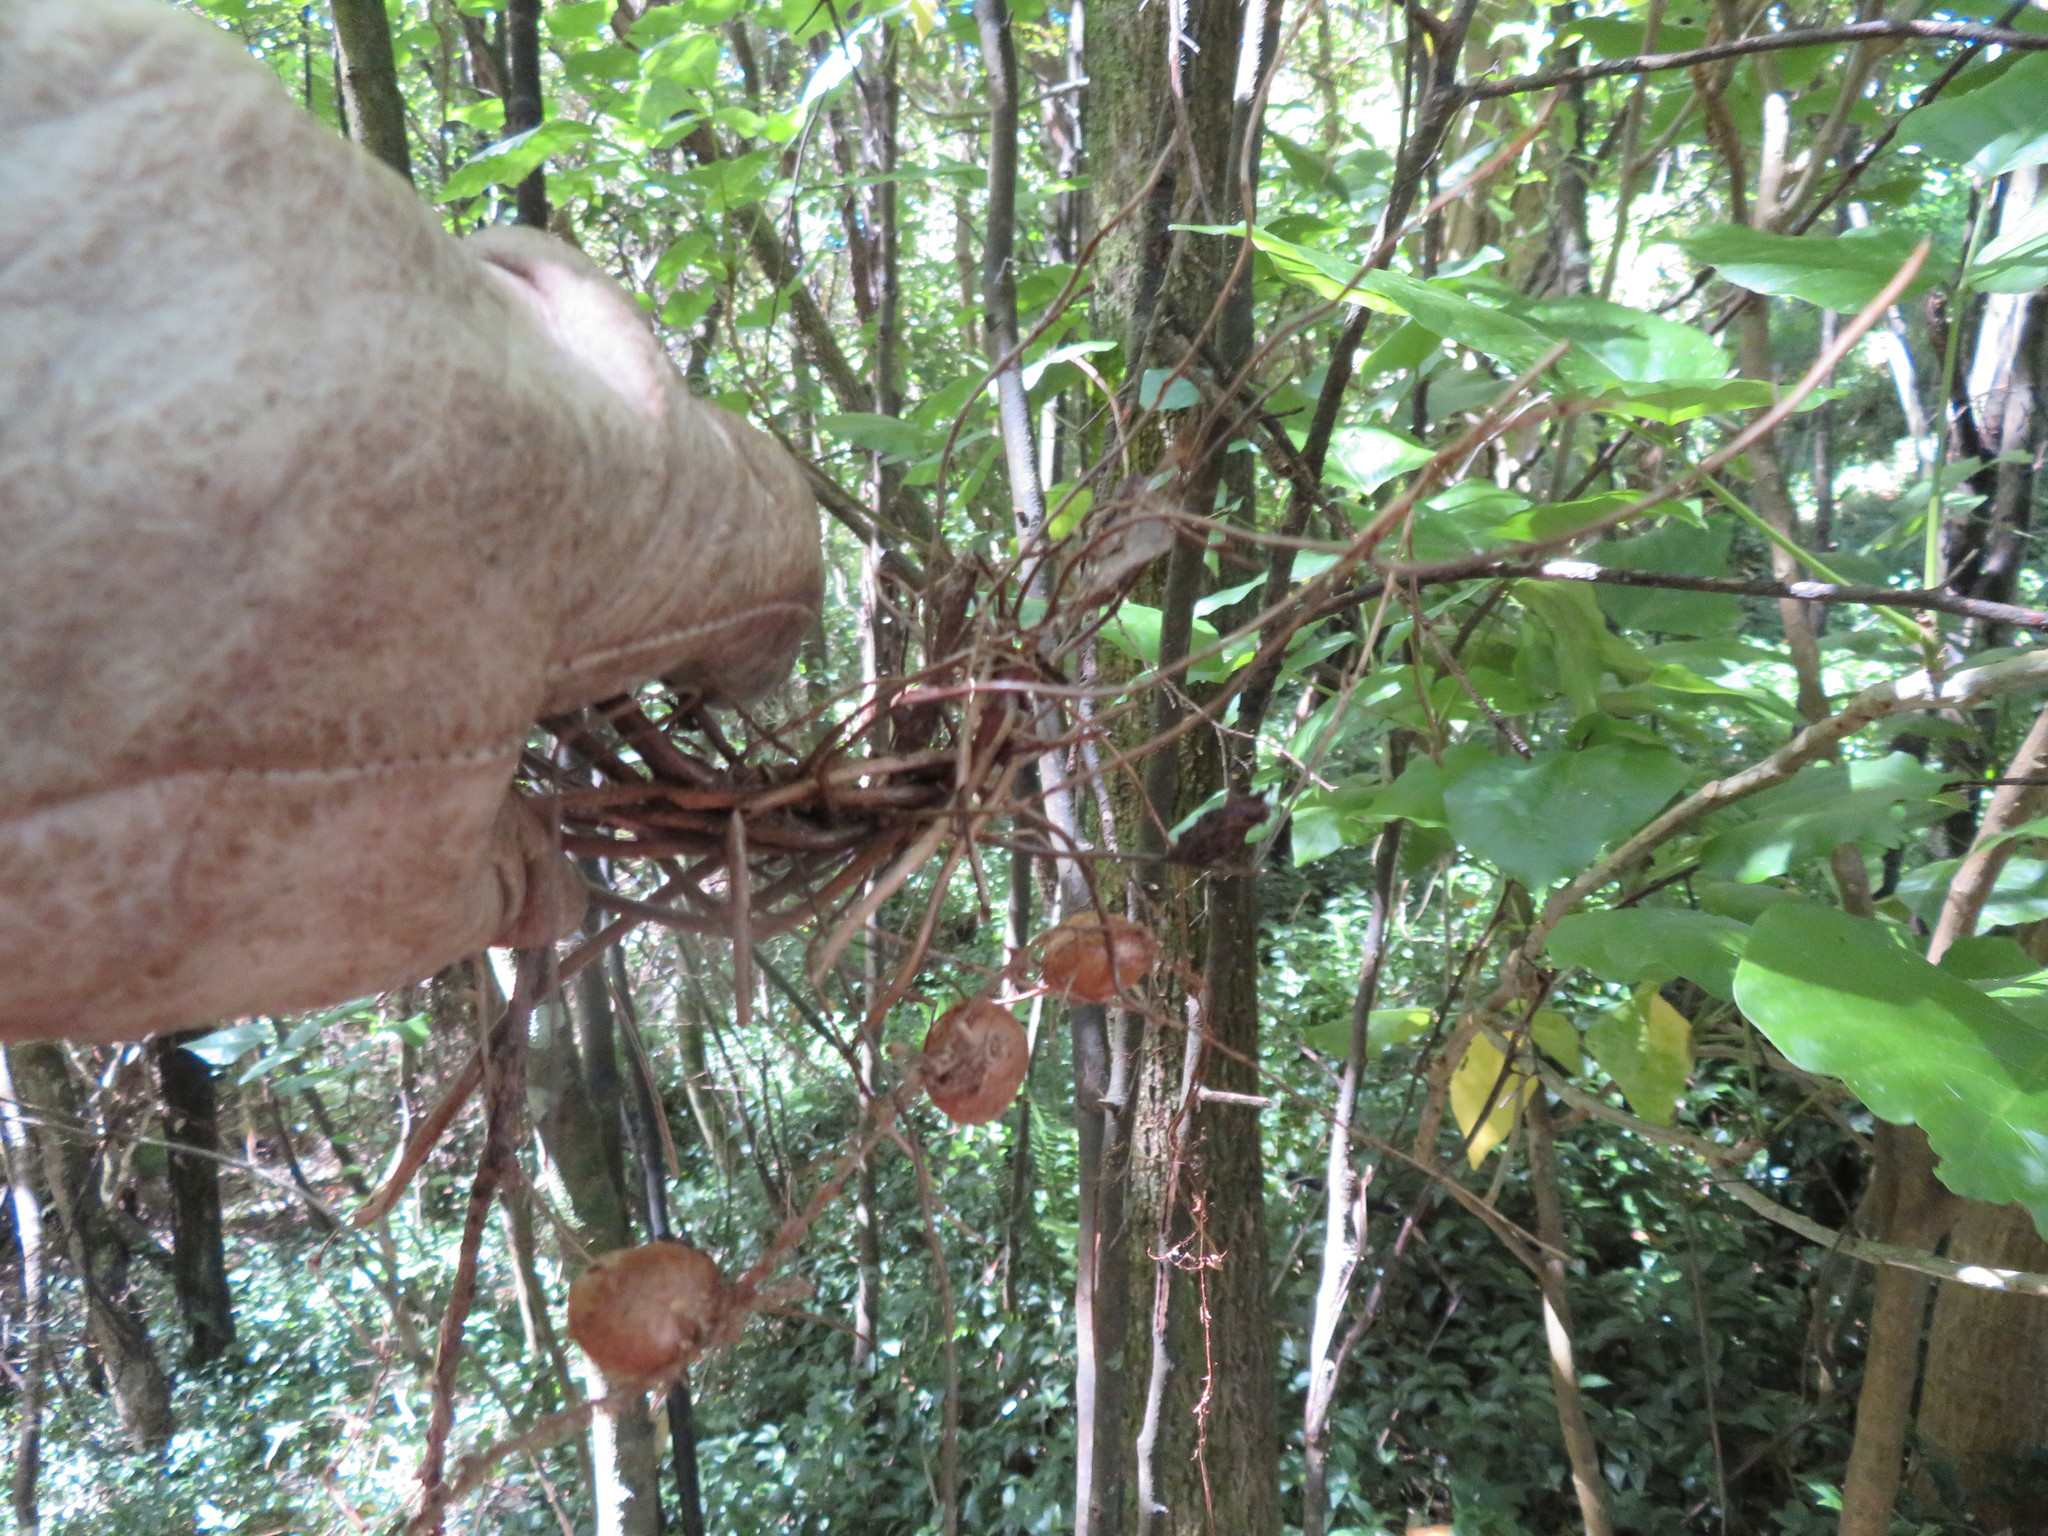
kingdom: Plantae
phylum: Tracheophyta
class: Polypodiopsida
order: Polypodiales
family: Nephrolepidaceae
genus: Nephrolepis
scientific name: Nephrolepis cordifolia
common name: Narrow swordfern
